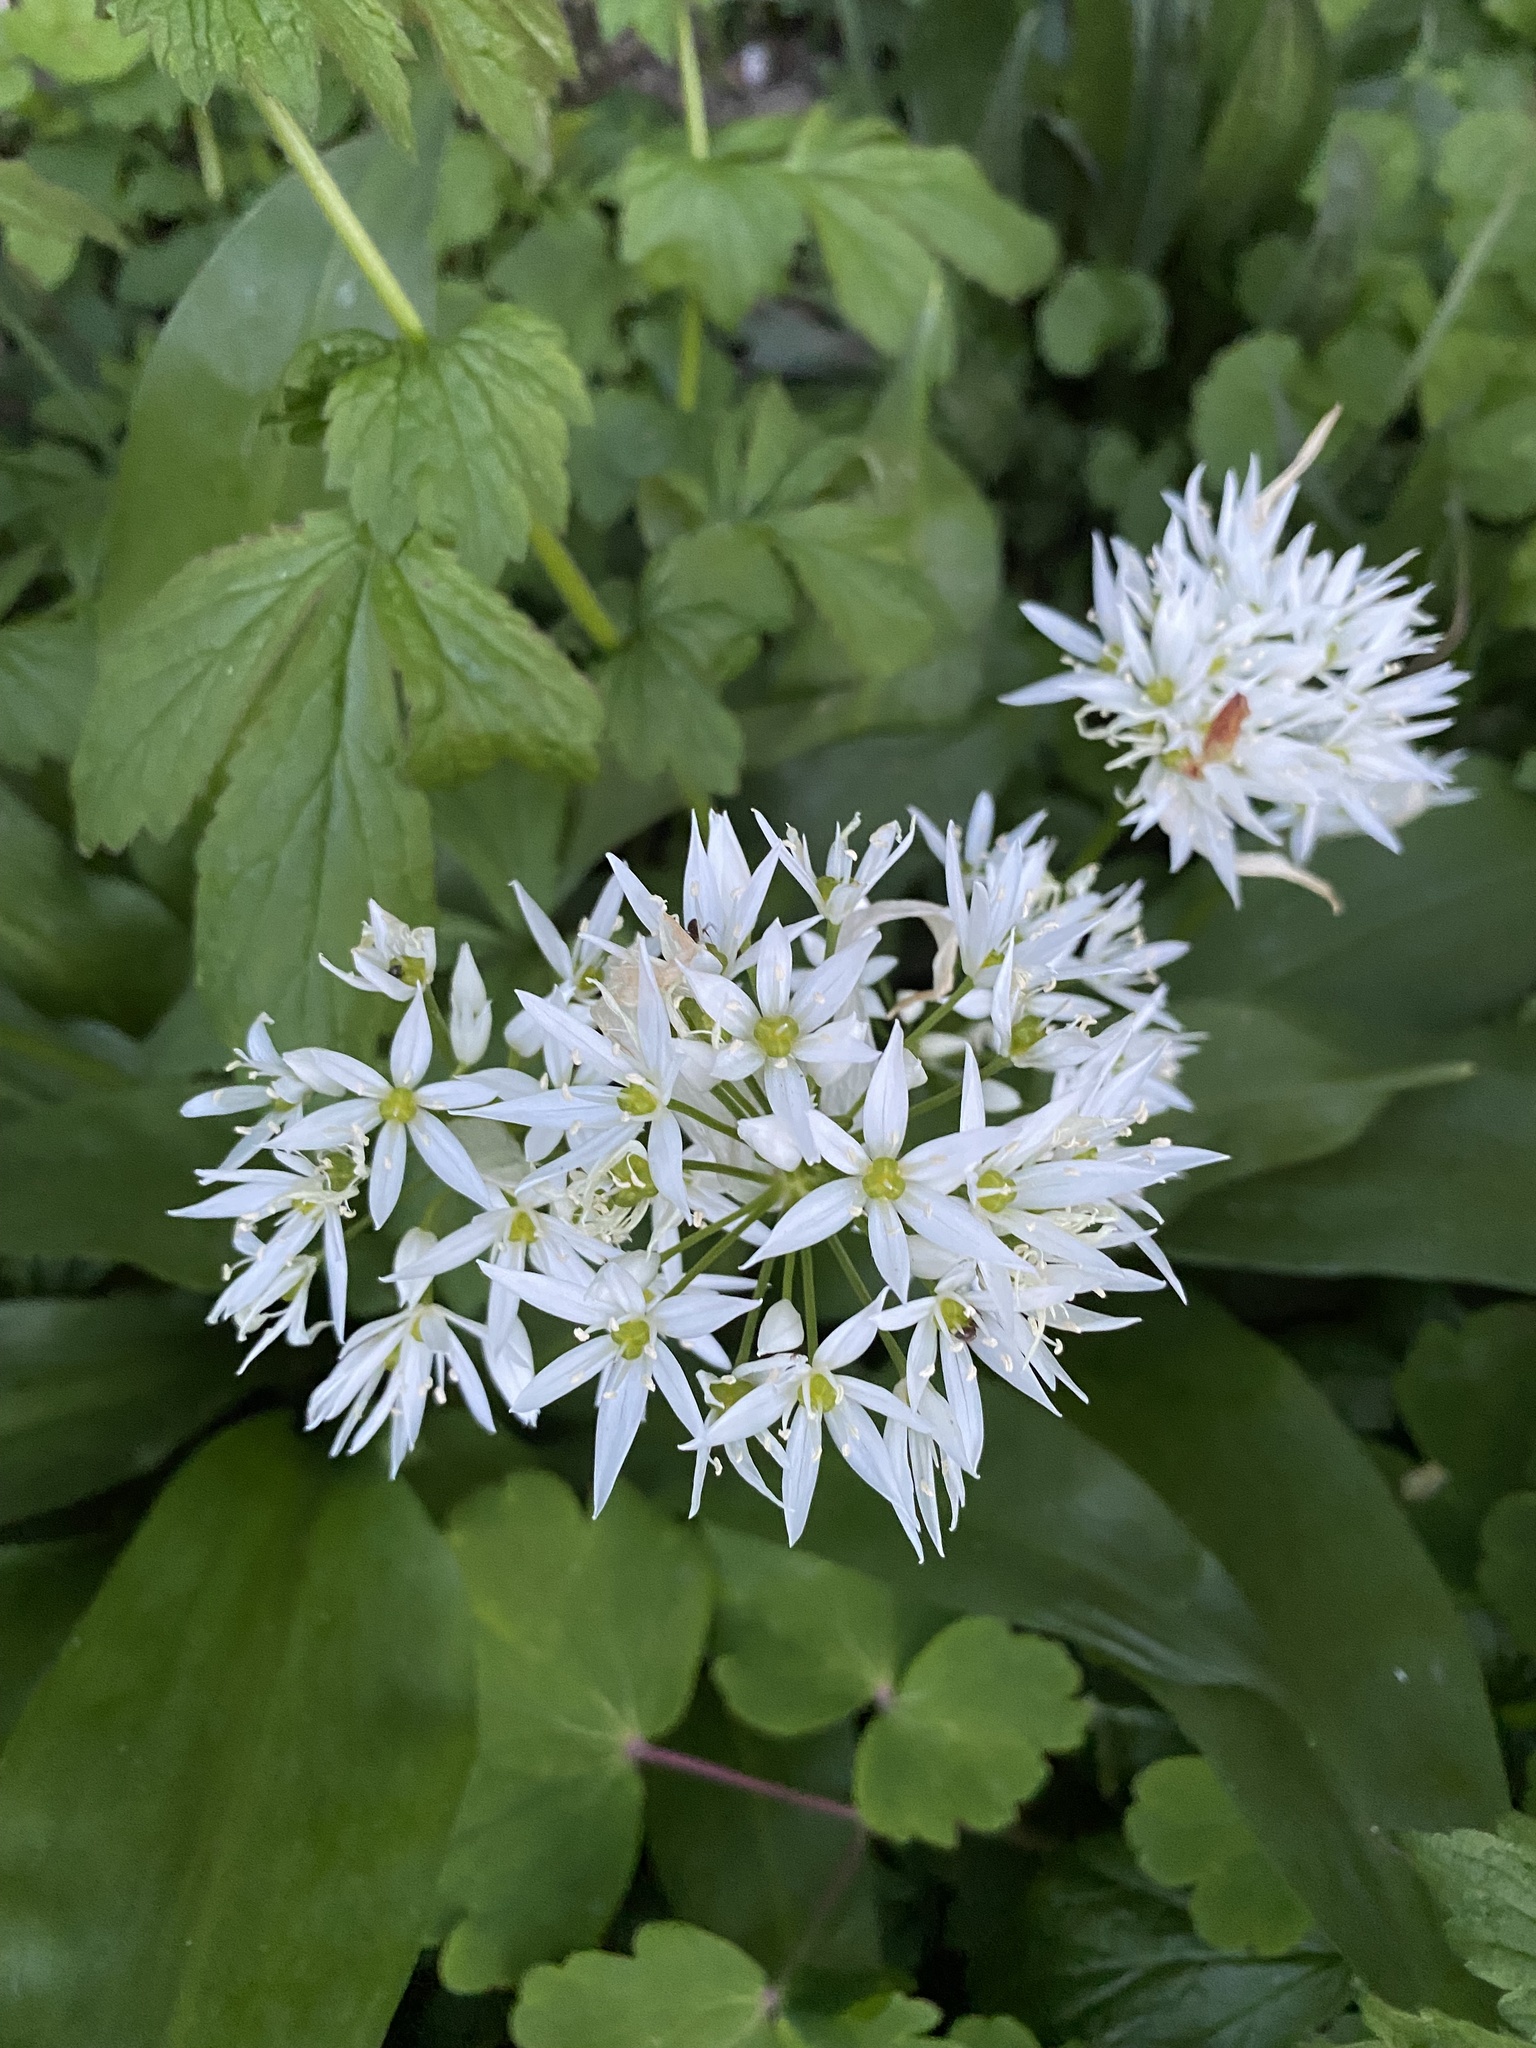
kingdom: Plantae
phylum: Tracheophyta
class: Liliopsida
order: Asparagales
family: Amaryllidaceae
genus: Allium
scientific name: Allium ursinum
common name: Ramsons
